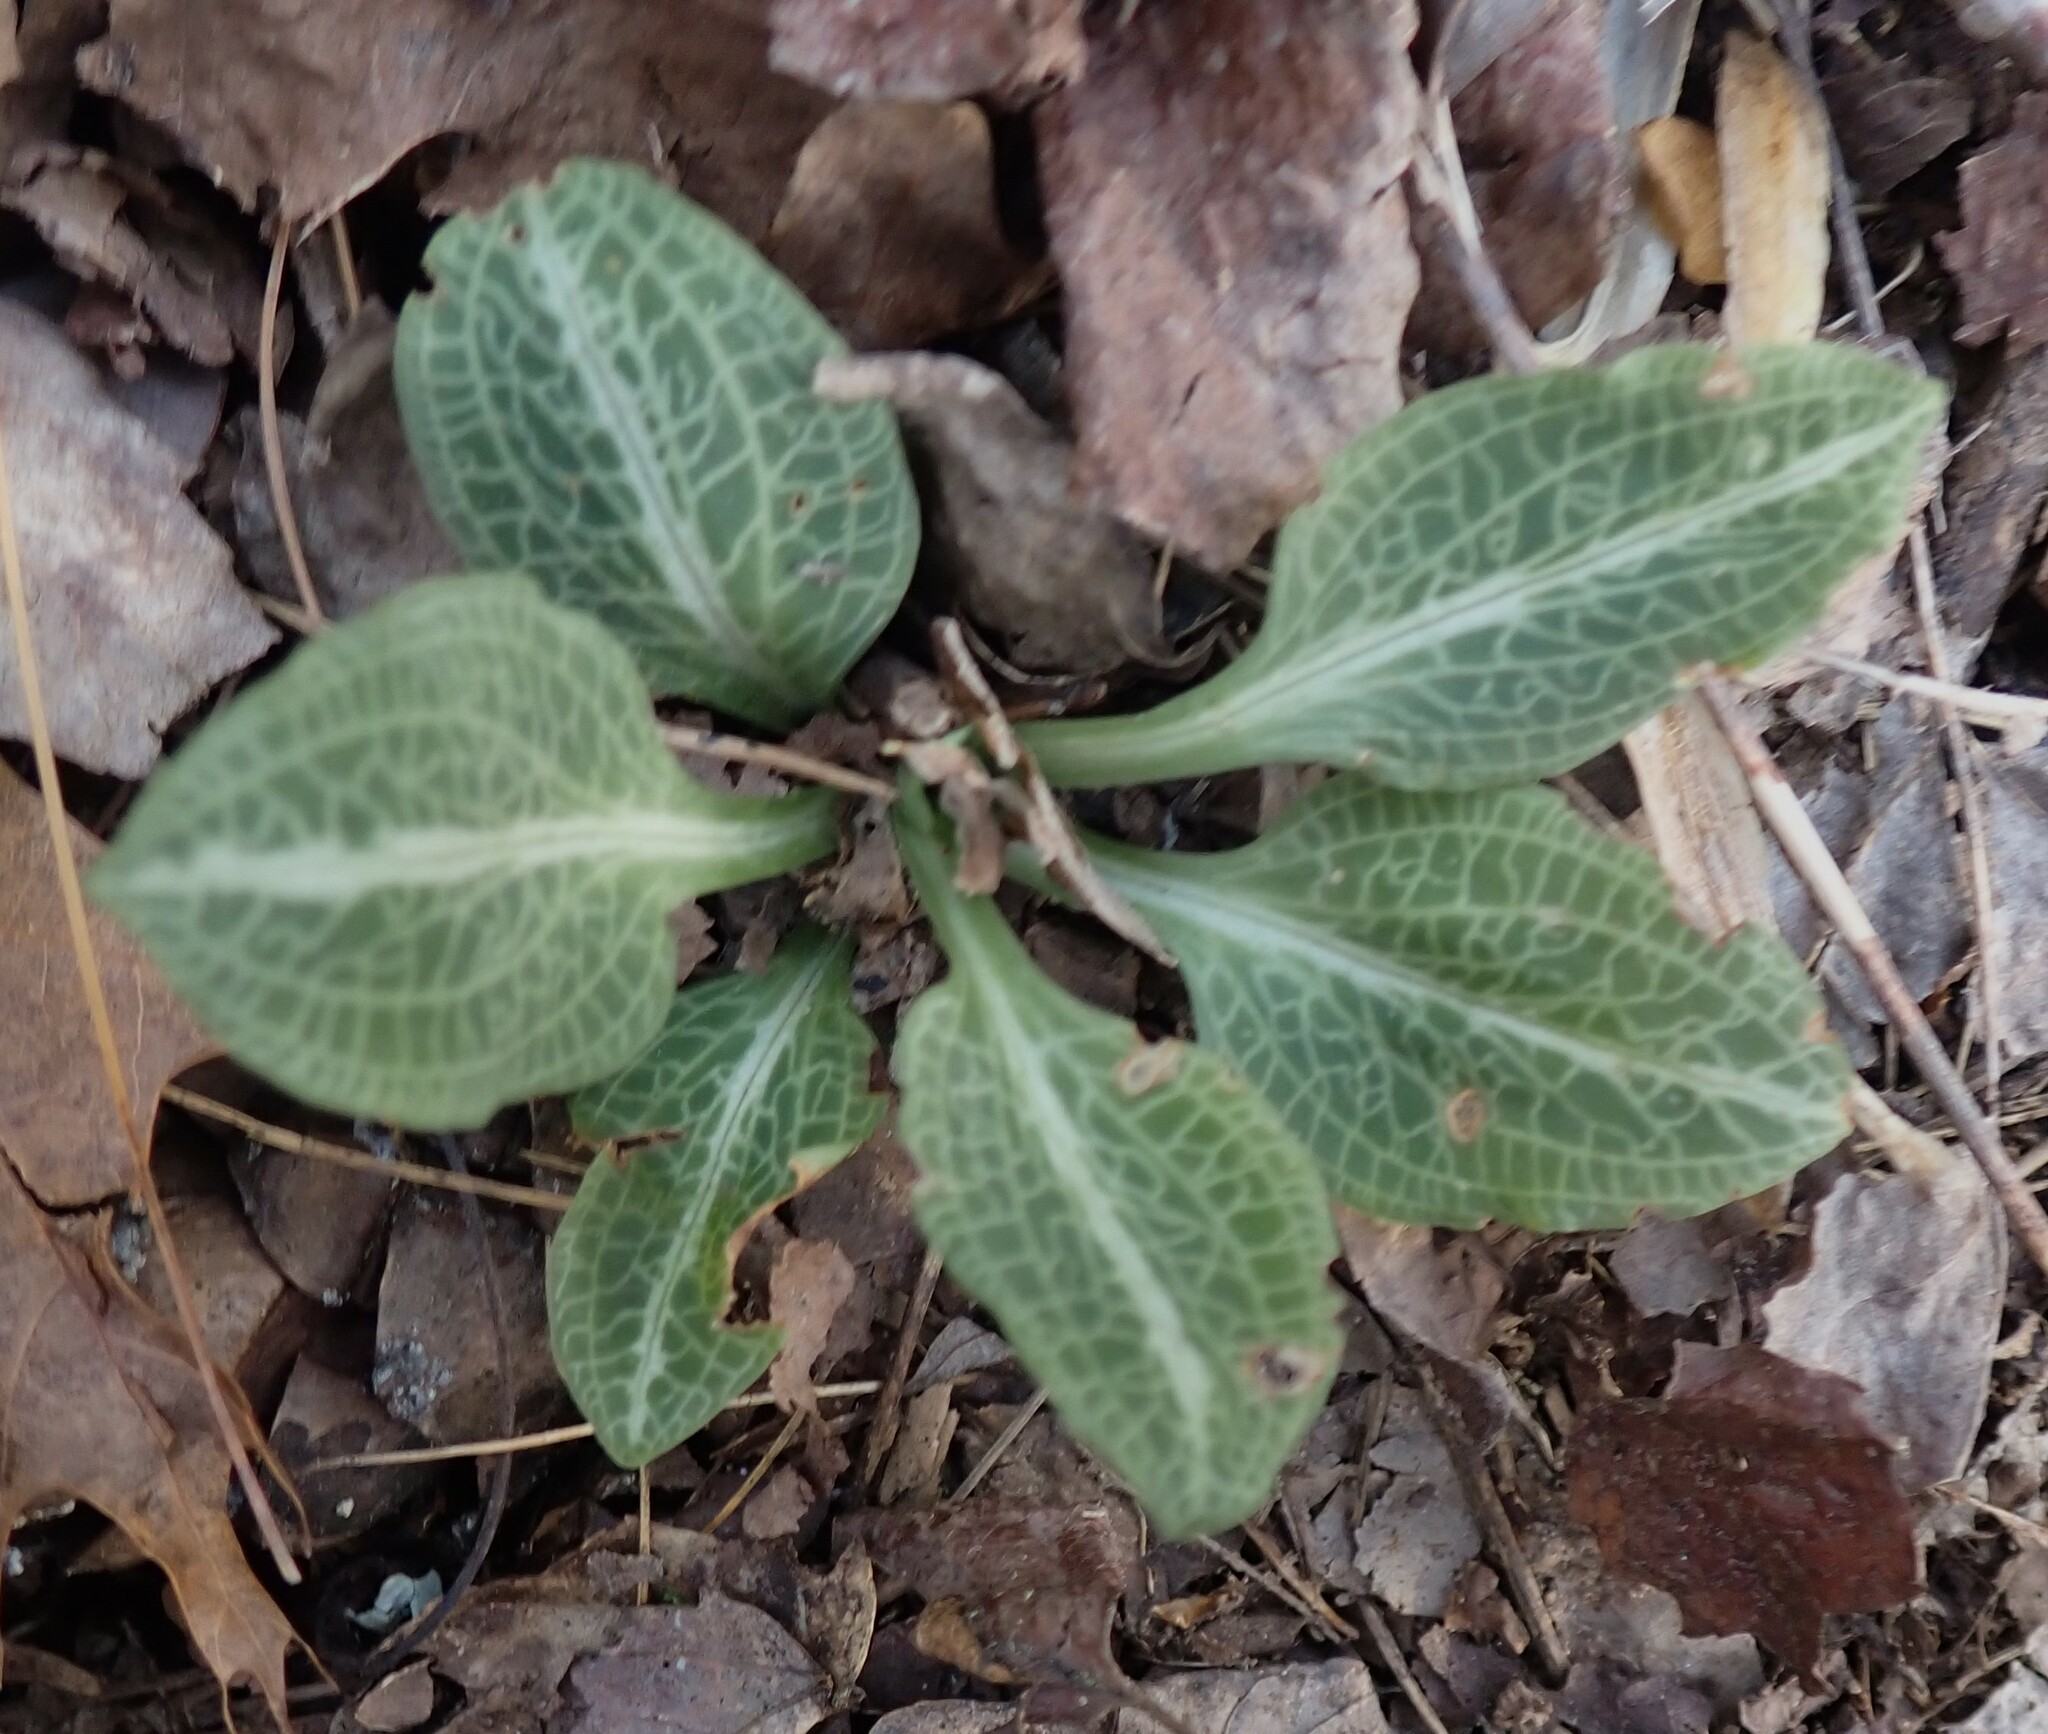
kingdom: Plantae
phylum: Tracheophyta
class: Liliopsida
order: Asparagales
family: Orchidaceae
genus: Goodyera
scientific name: Goodyera pubescens
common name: Downy rattlesnake-plantain
